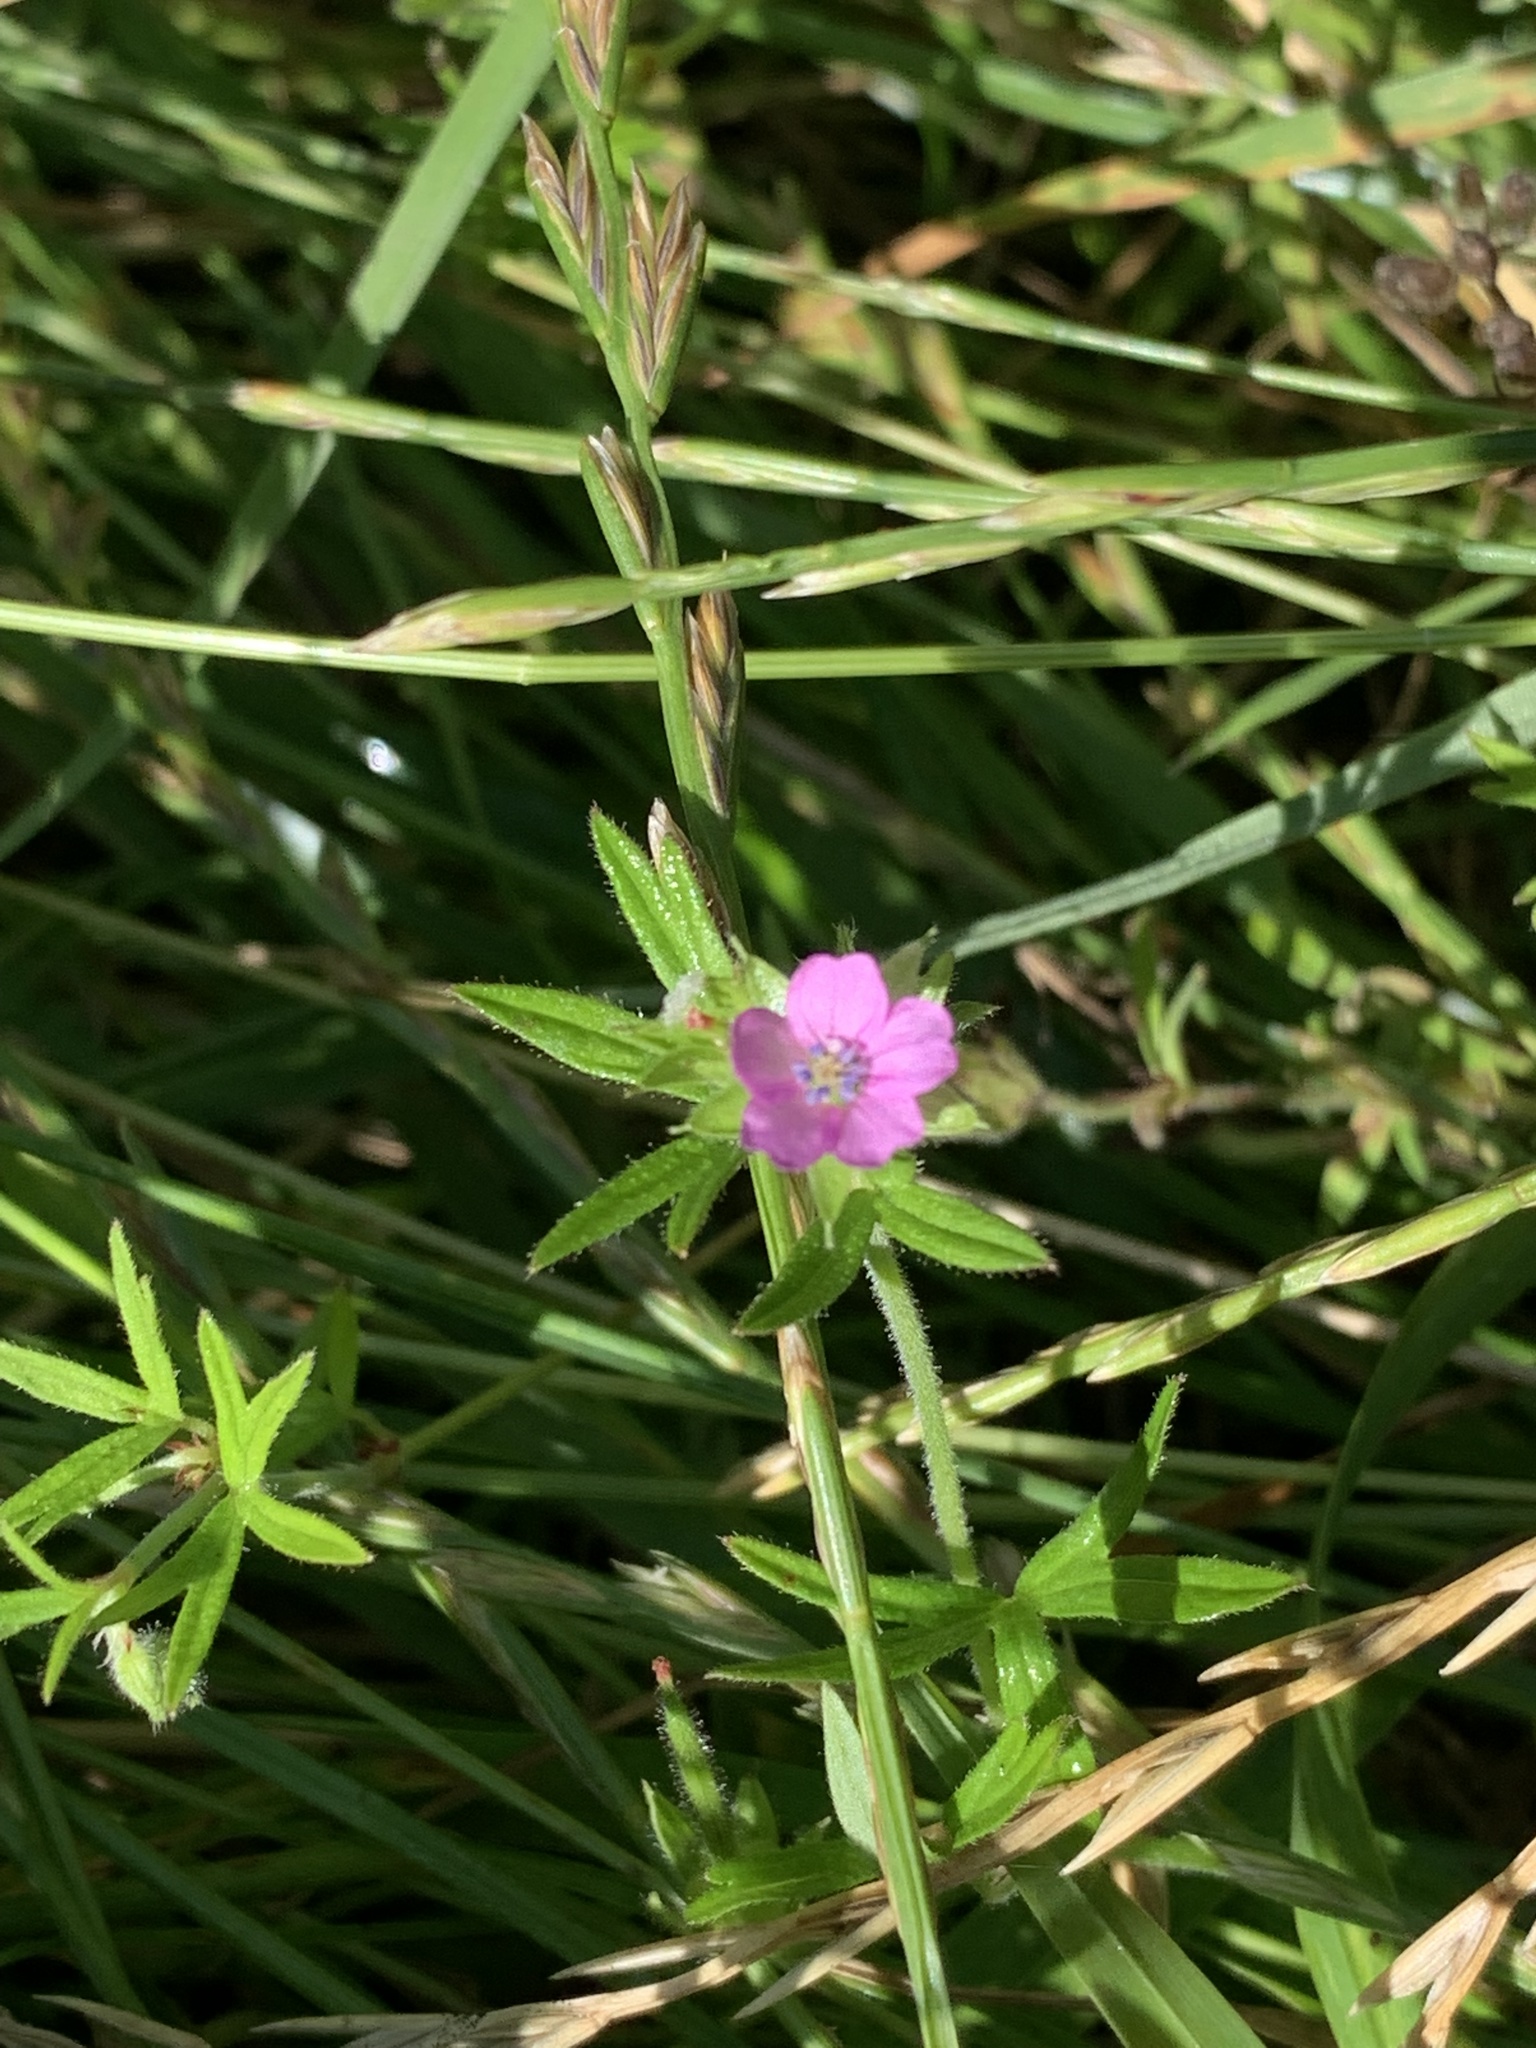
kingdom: Plantae
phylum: Tracheophyta
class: Magnoliopsida
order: Geraniales
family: Geraniaceae
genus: Geranium
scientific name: Geranium dissectum
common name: Cut-leaved crane's-bill
